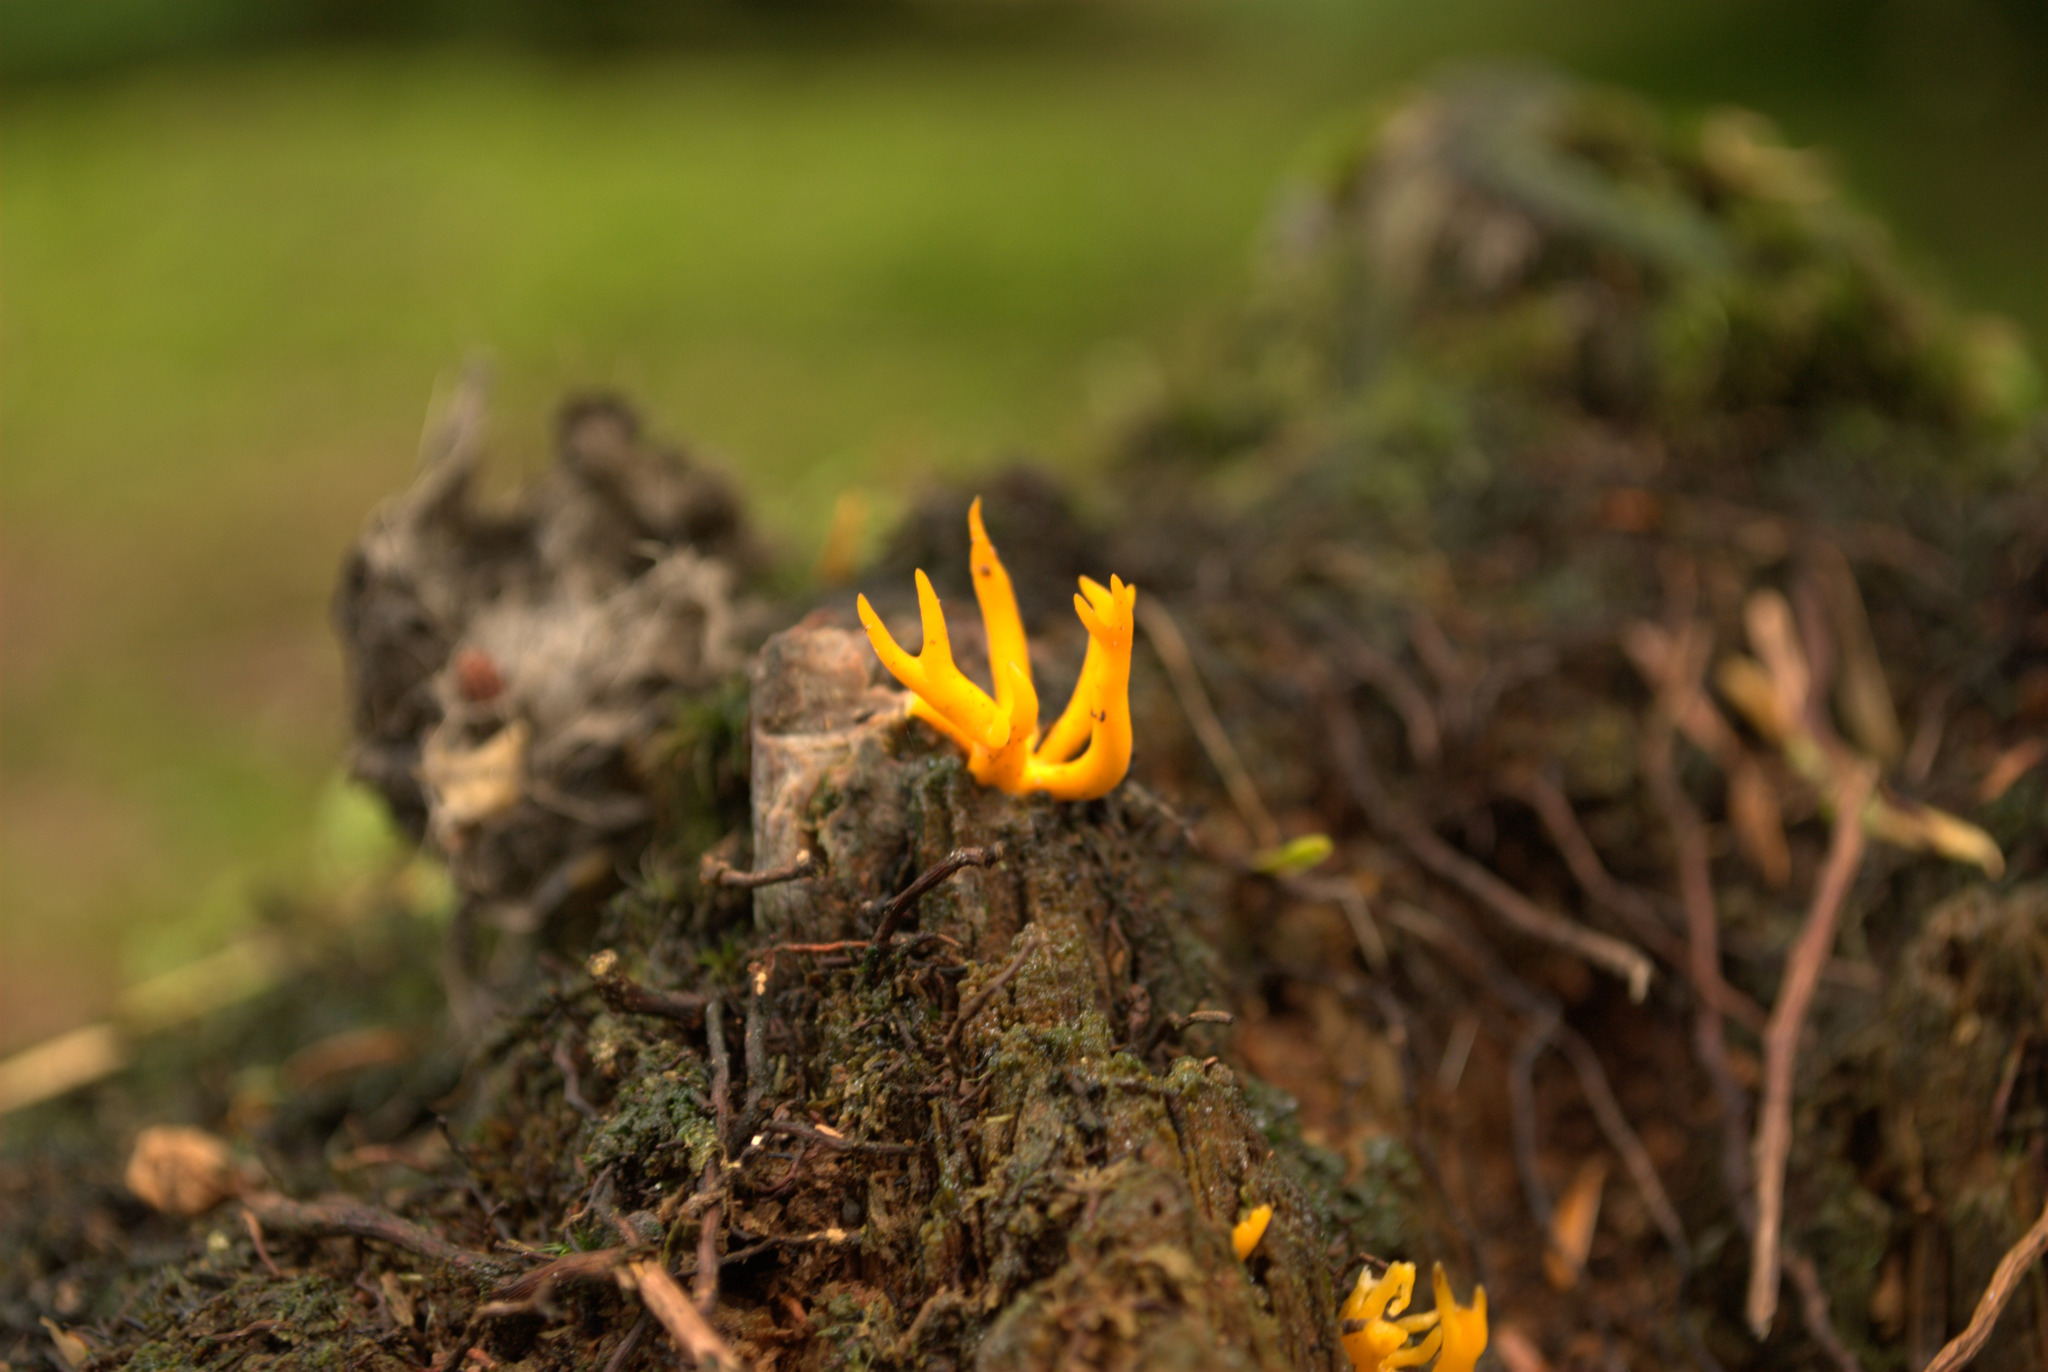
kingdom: Fungi
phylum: Basidiomycota
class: Dacrymycetes
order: Dacrymycetales
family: Dacrymycetaceae
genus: Calocera
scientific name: Calocera viscosa
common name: Yellow stagshorn
